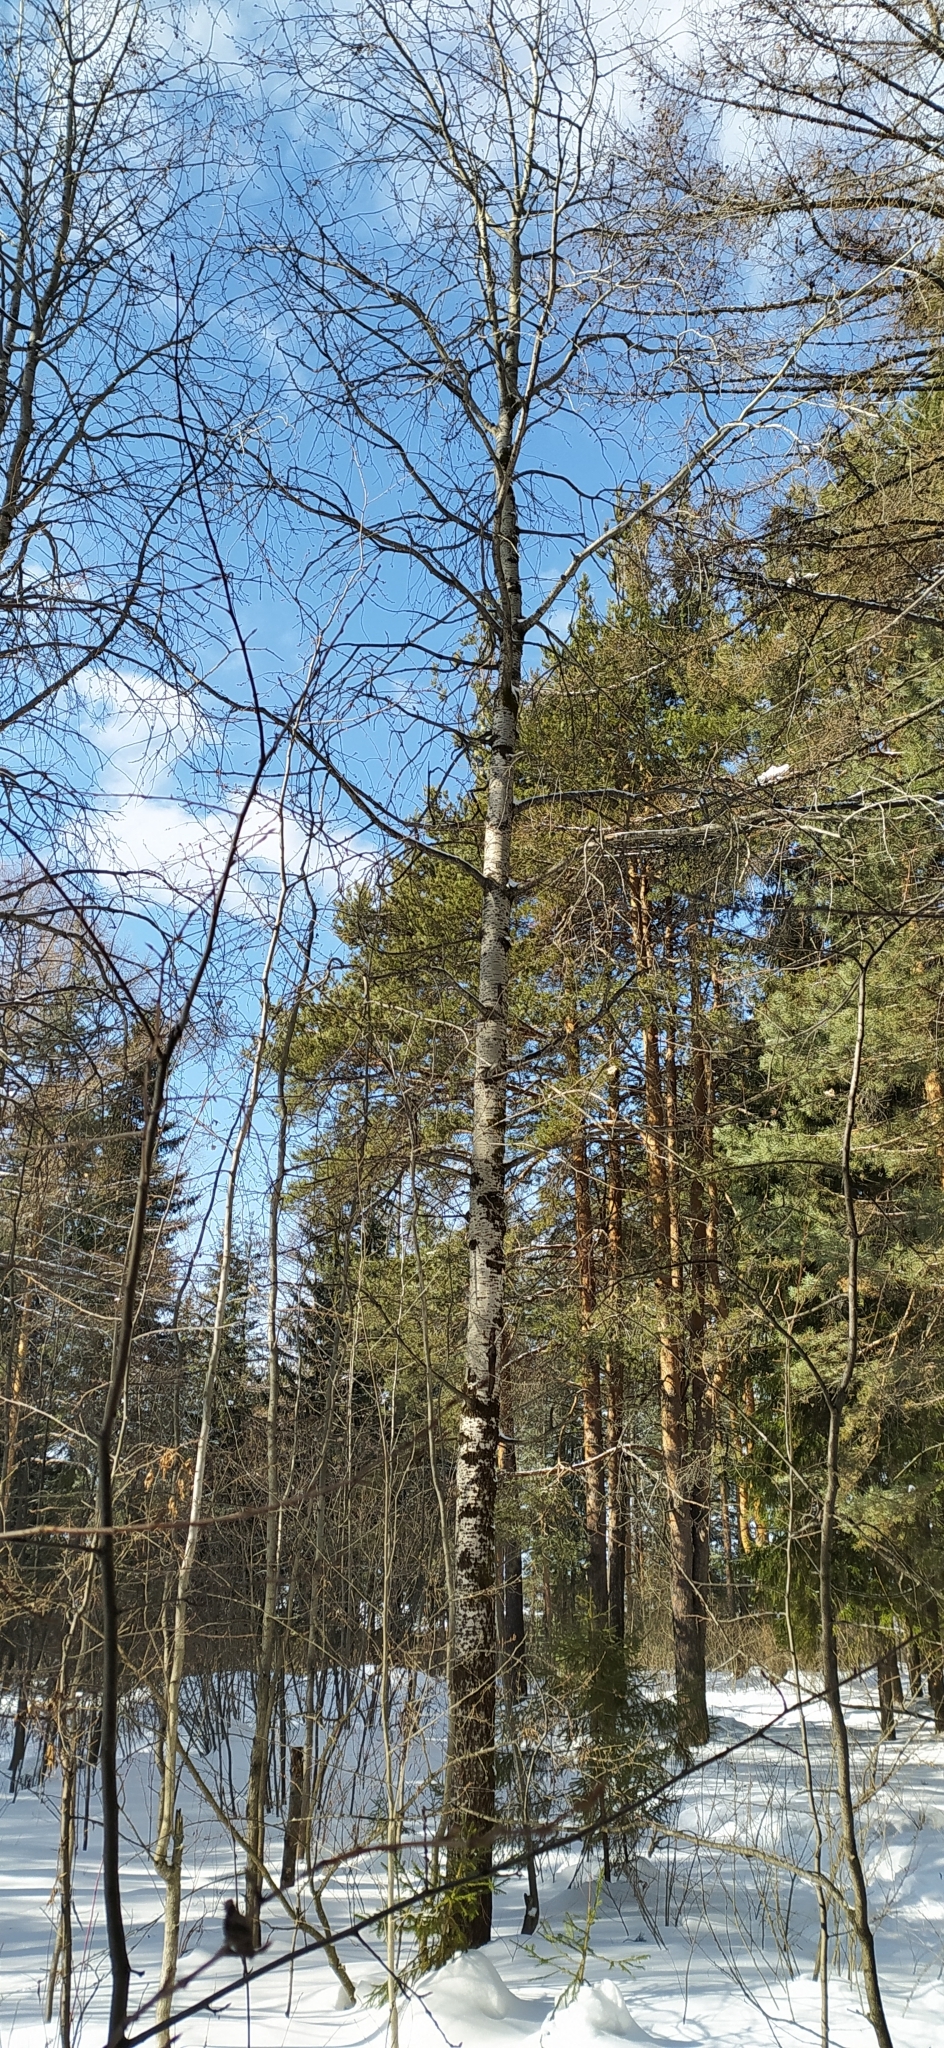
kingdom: Plantae
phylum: Tracheophyta
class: Magnoliopsida
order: Malpighiales
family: Salicaceae
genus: Populus
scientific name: Populus tremula
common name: European aspen
